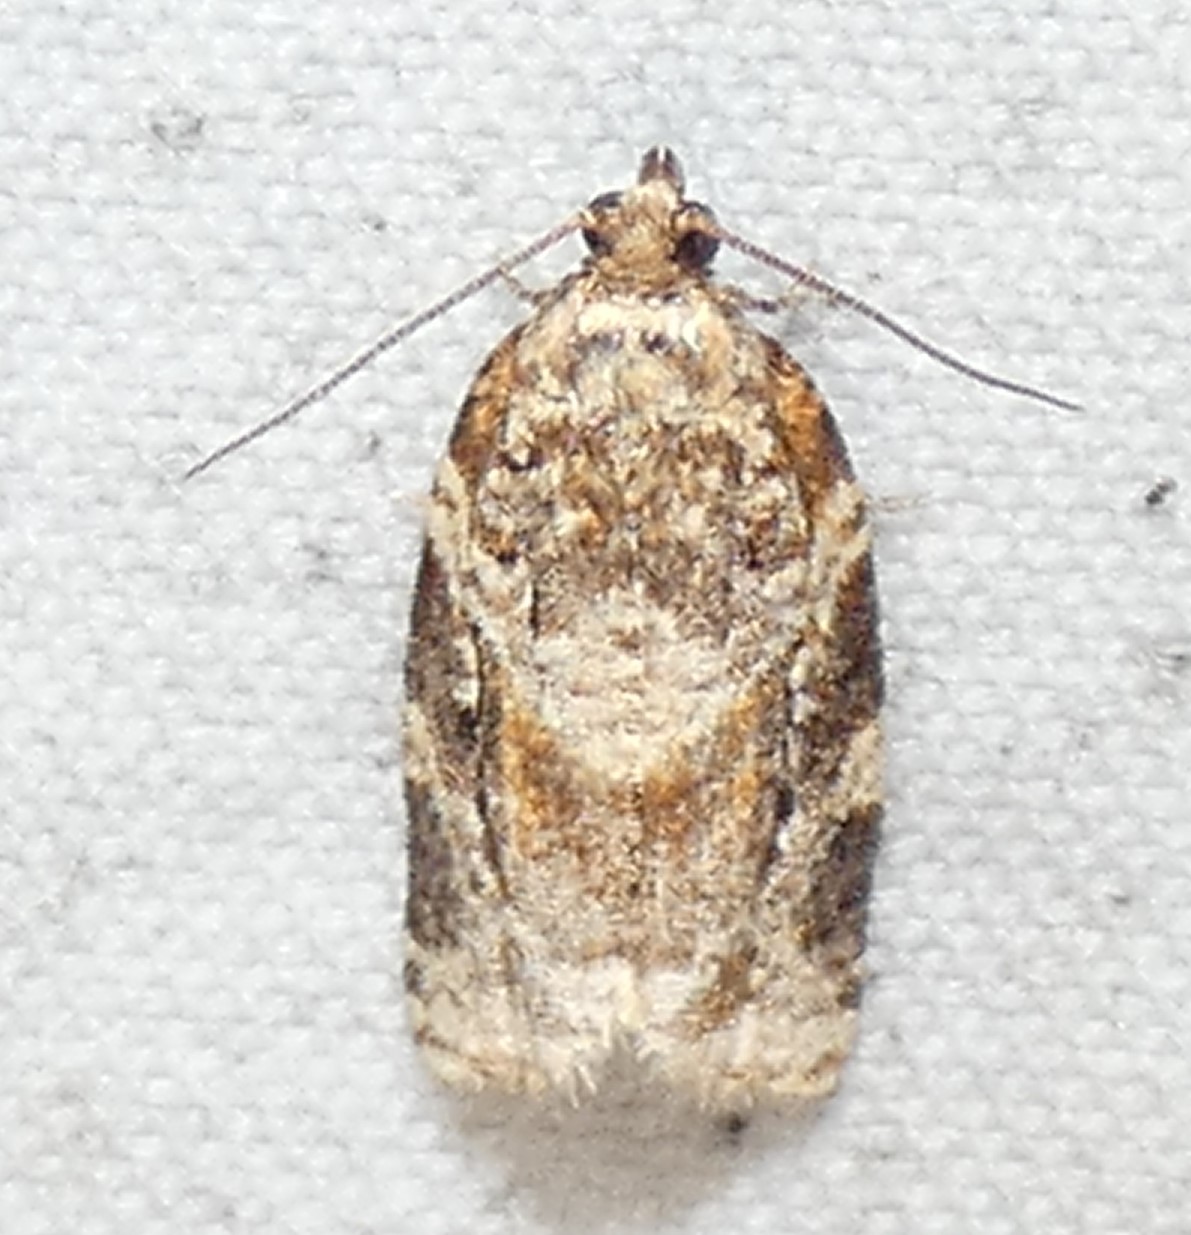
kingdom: Animalia
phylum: Arthropoda
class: Insecta
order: Lepidoptera
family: Tortricidae
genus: Argyrotaenia
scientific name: Argyrotaenia velutinana
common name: Red-banded leafroller moth
